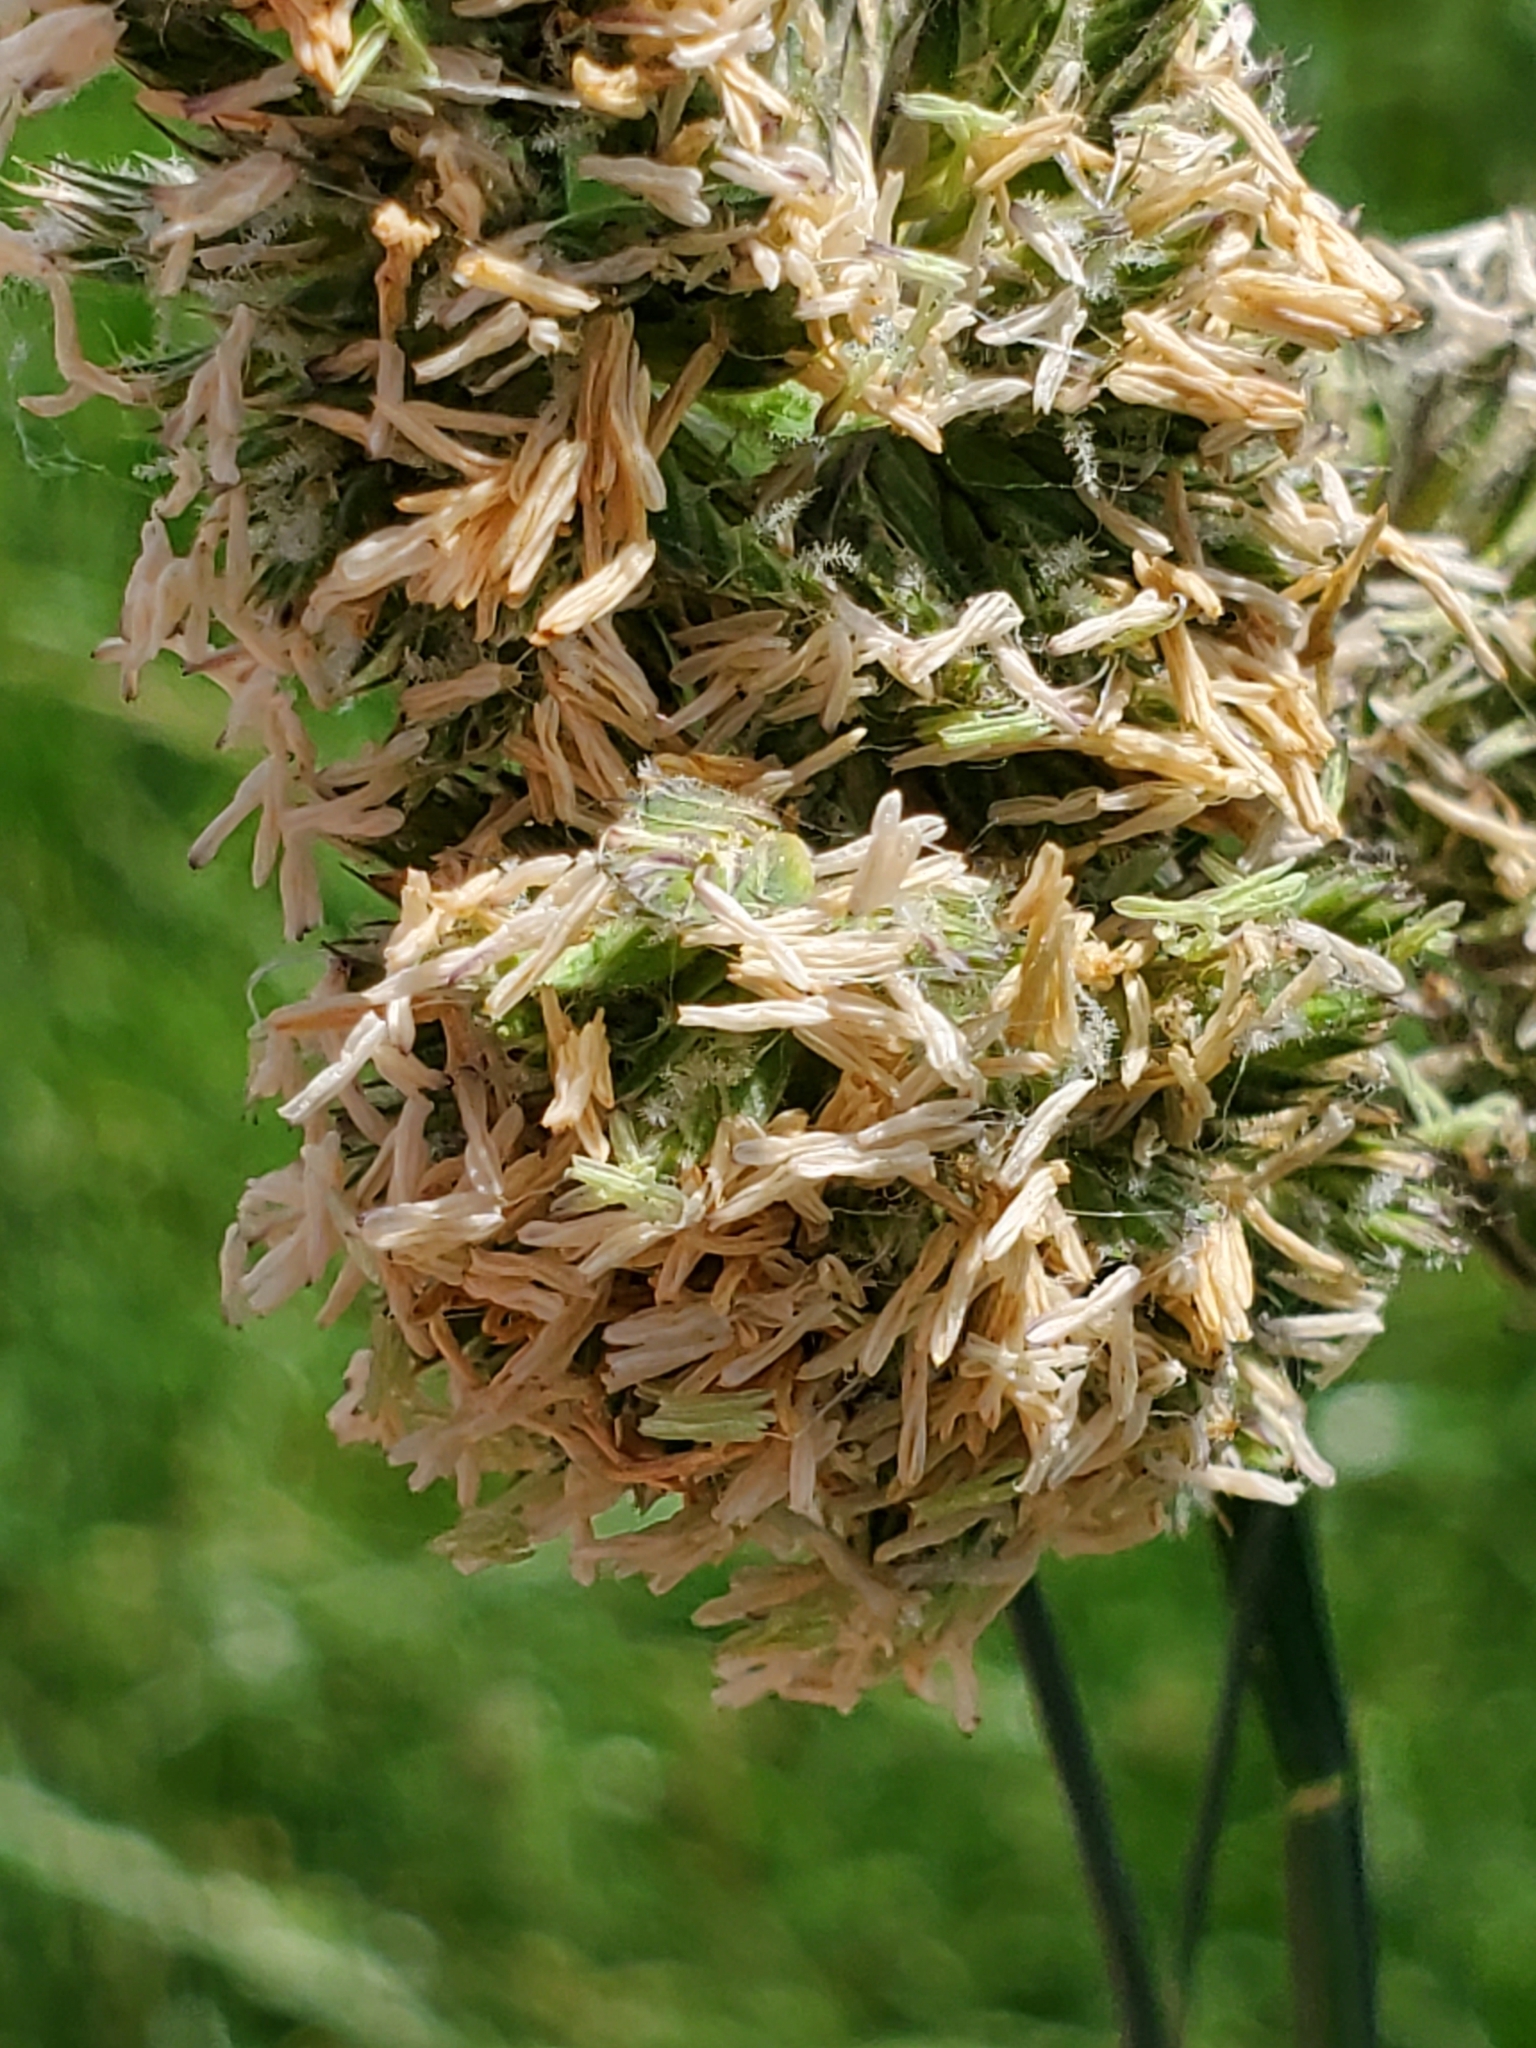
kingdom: Plantae
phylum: Tracheophyta
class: Liliopsida
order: Poales
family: Poaceae
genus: Dactylis
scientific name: Dactylis glomerata
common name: Orchardgrass
